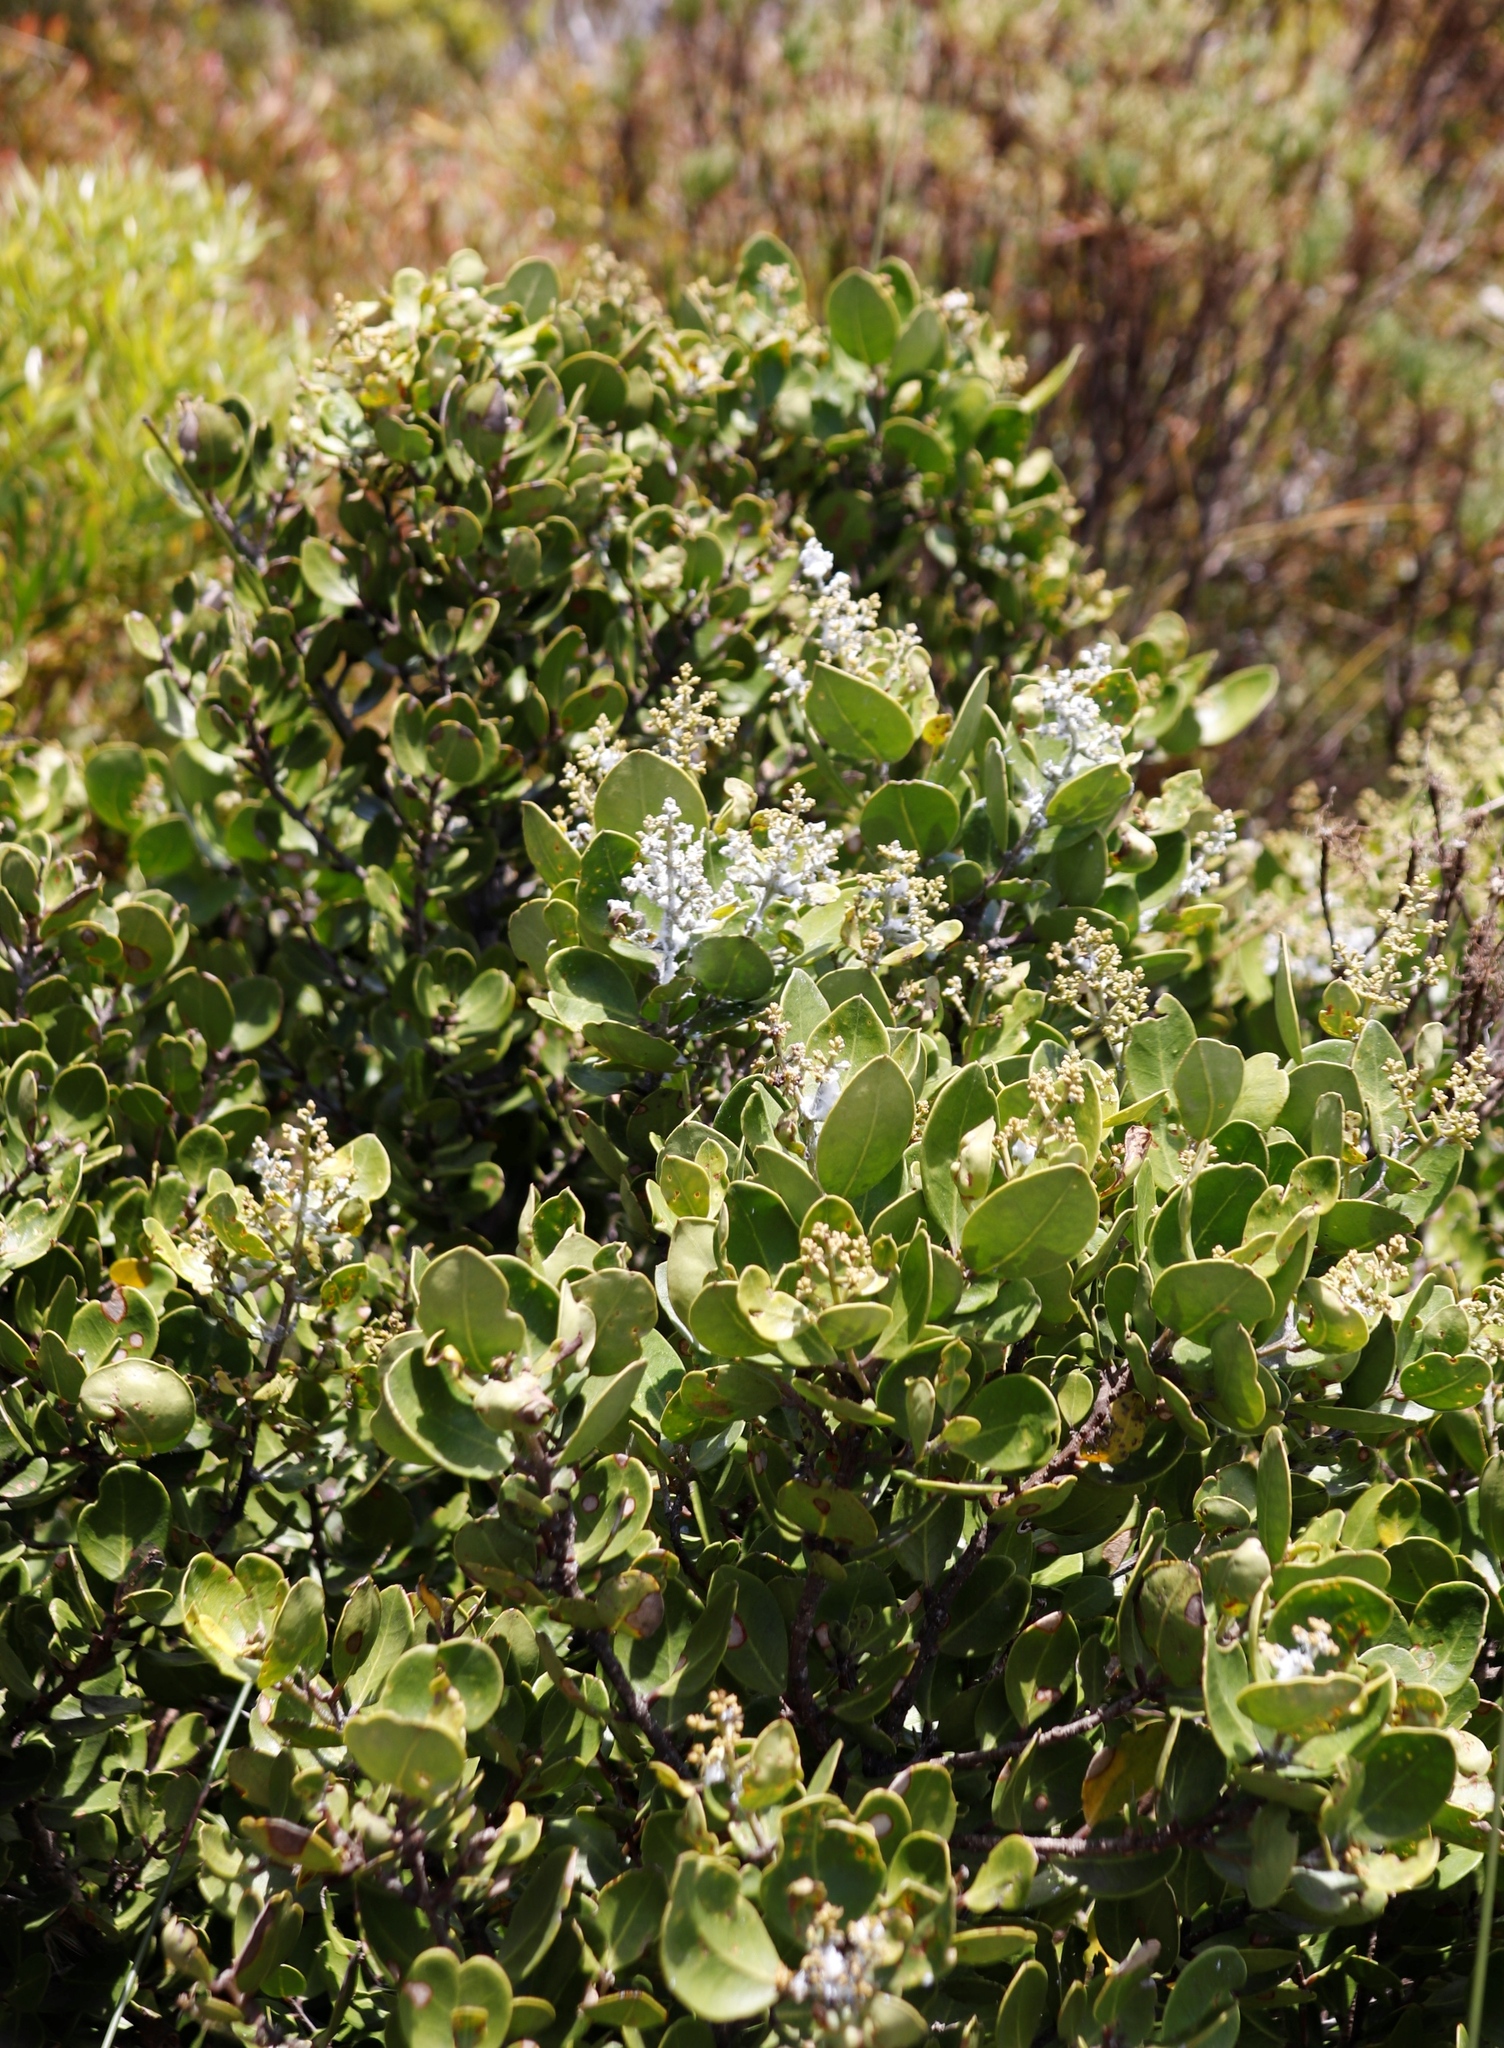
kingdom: Plantae
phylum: Tracheophyta
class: Magnoliopsida
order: Lamiales
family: Oleaceae
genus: Olea
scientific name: Olea capensis
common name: Black ironwood
